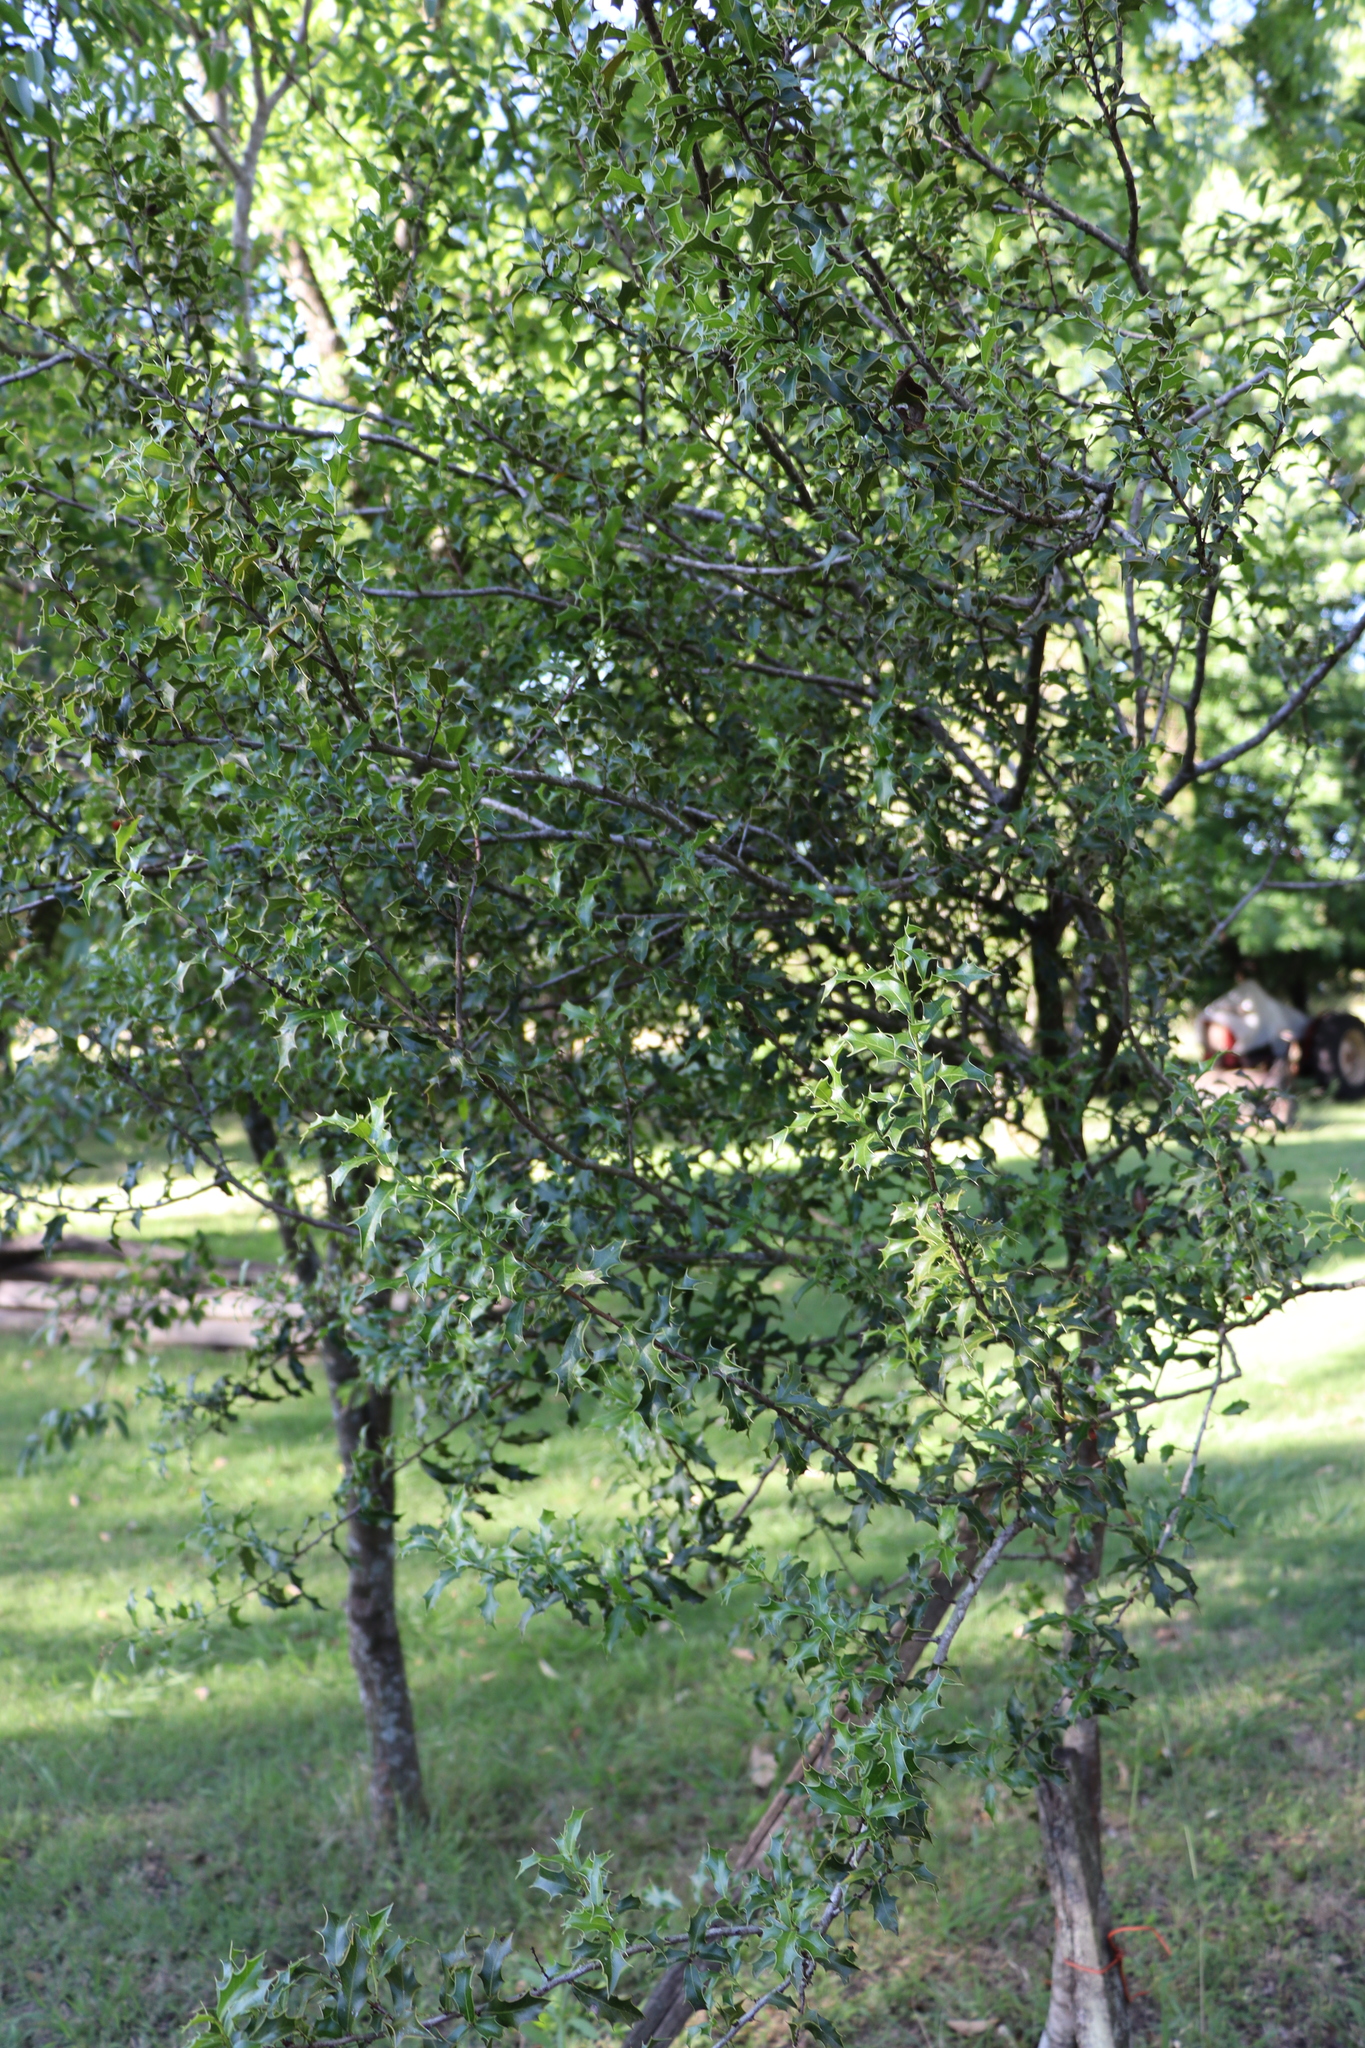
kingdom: Plantae
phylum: Tracheophyta
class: Magnoliopsida
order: Celastrales
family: Celastraceae
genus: Monteverdia
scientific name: Monteverdia
